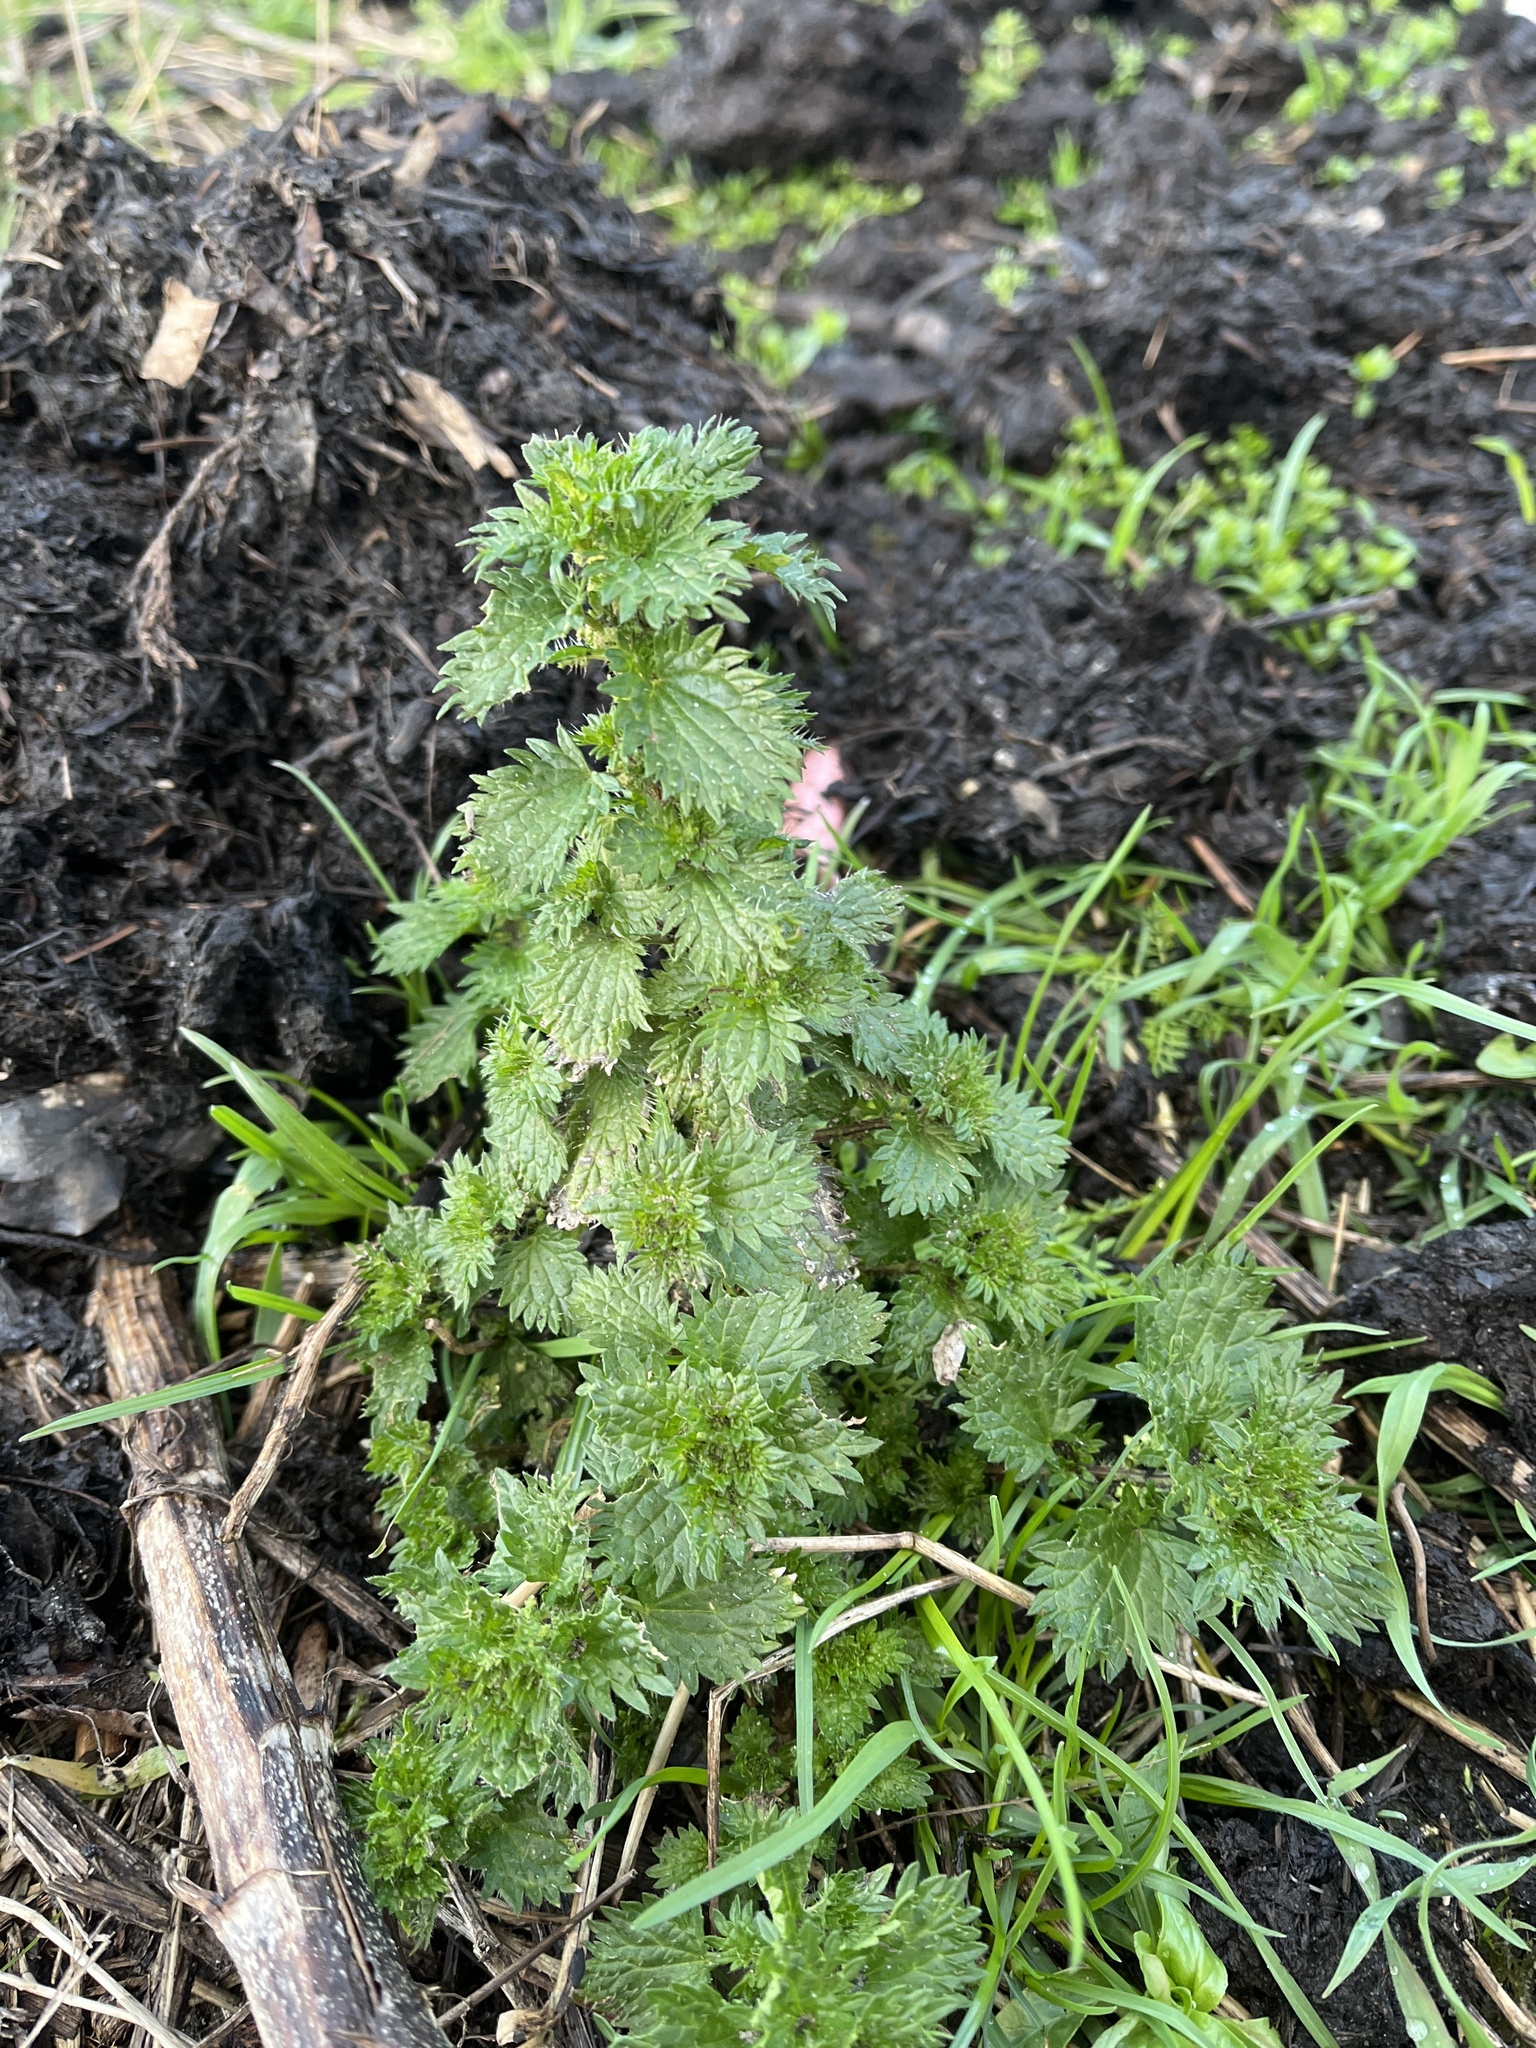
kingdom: Plantae
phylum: Tracheophyta
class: Magnoliopsida
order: Rosales
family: Urticaceae
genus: Urtica
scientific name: Urtica urens
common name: Dwarf nettle
